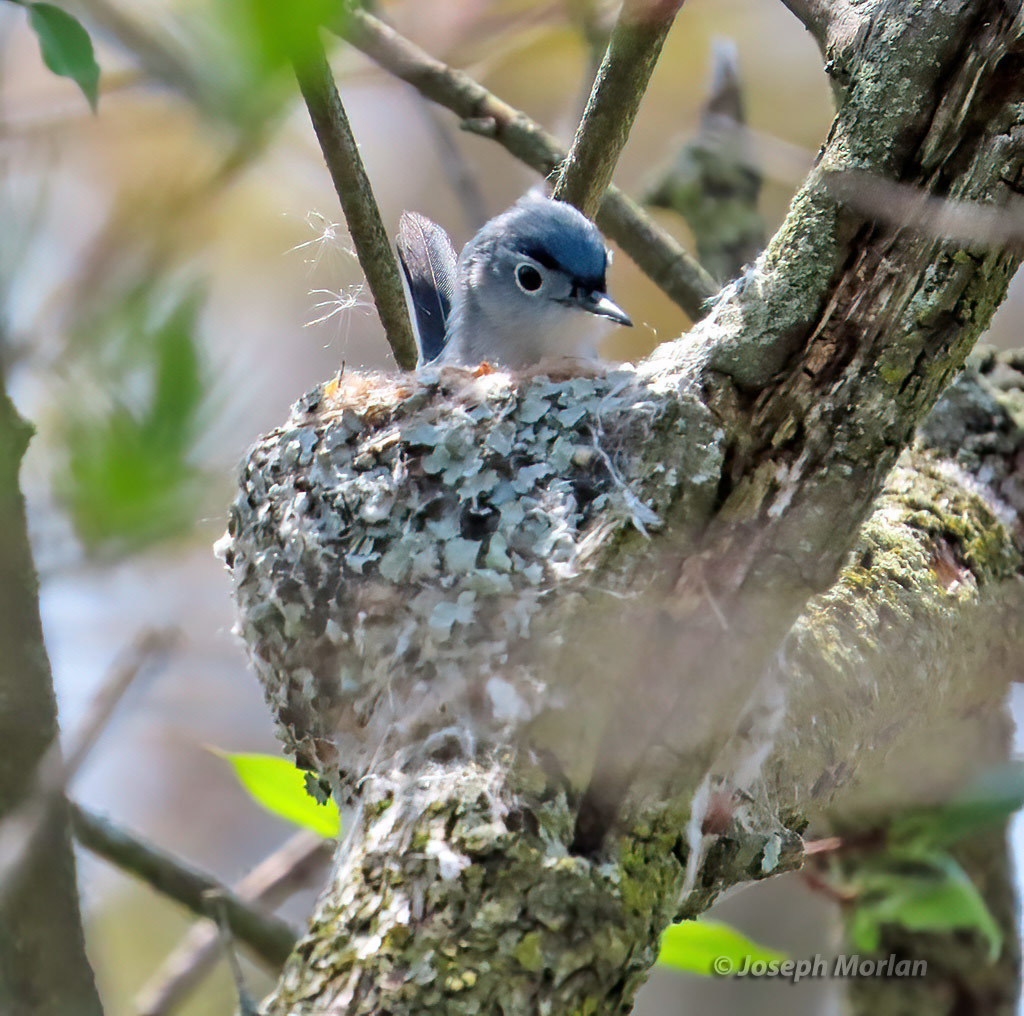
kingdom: Animalia
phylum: Chordata
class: Aves
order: Passeriformes
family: Polioptilidae
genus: Polioptila
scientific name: Polioptila caerulea
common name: Blue-gray gnatcatcher
